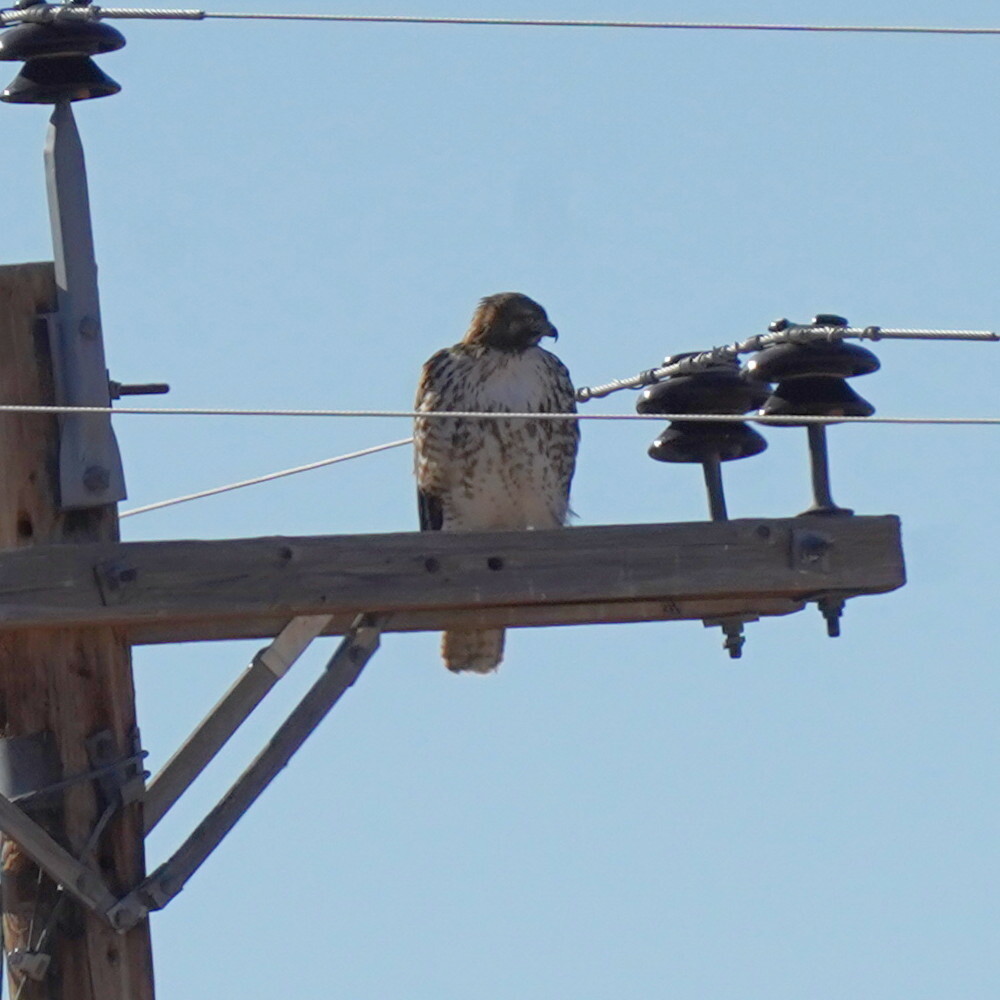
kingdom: Animalia
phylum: Chordata
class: Aves
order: Accipitriformes
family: Accipitridae
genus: Buteo
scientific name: Buteo jamaicensis
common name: Red-tailed hawk
